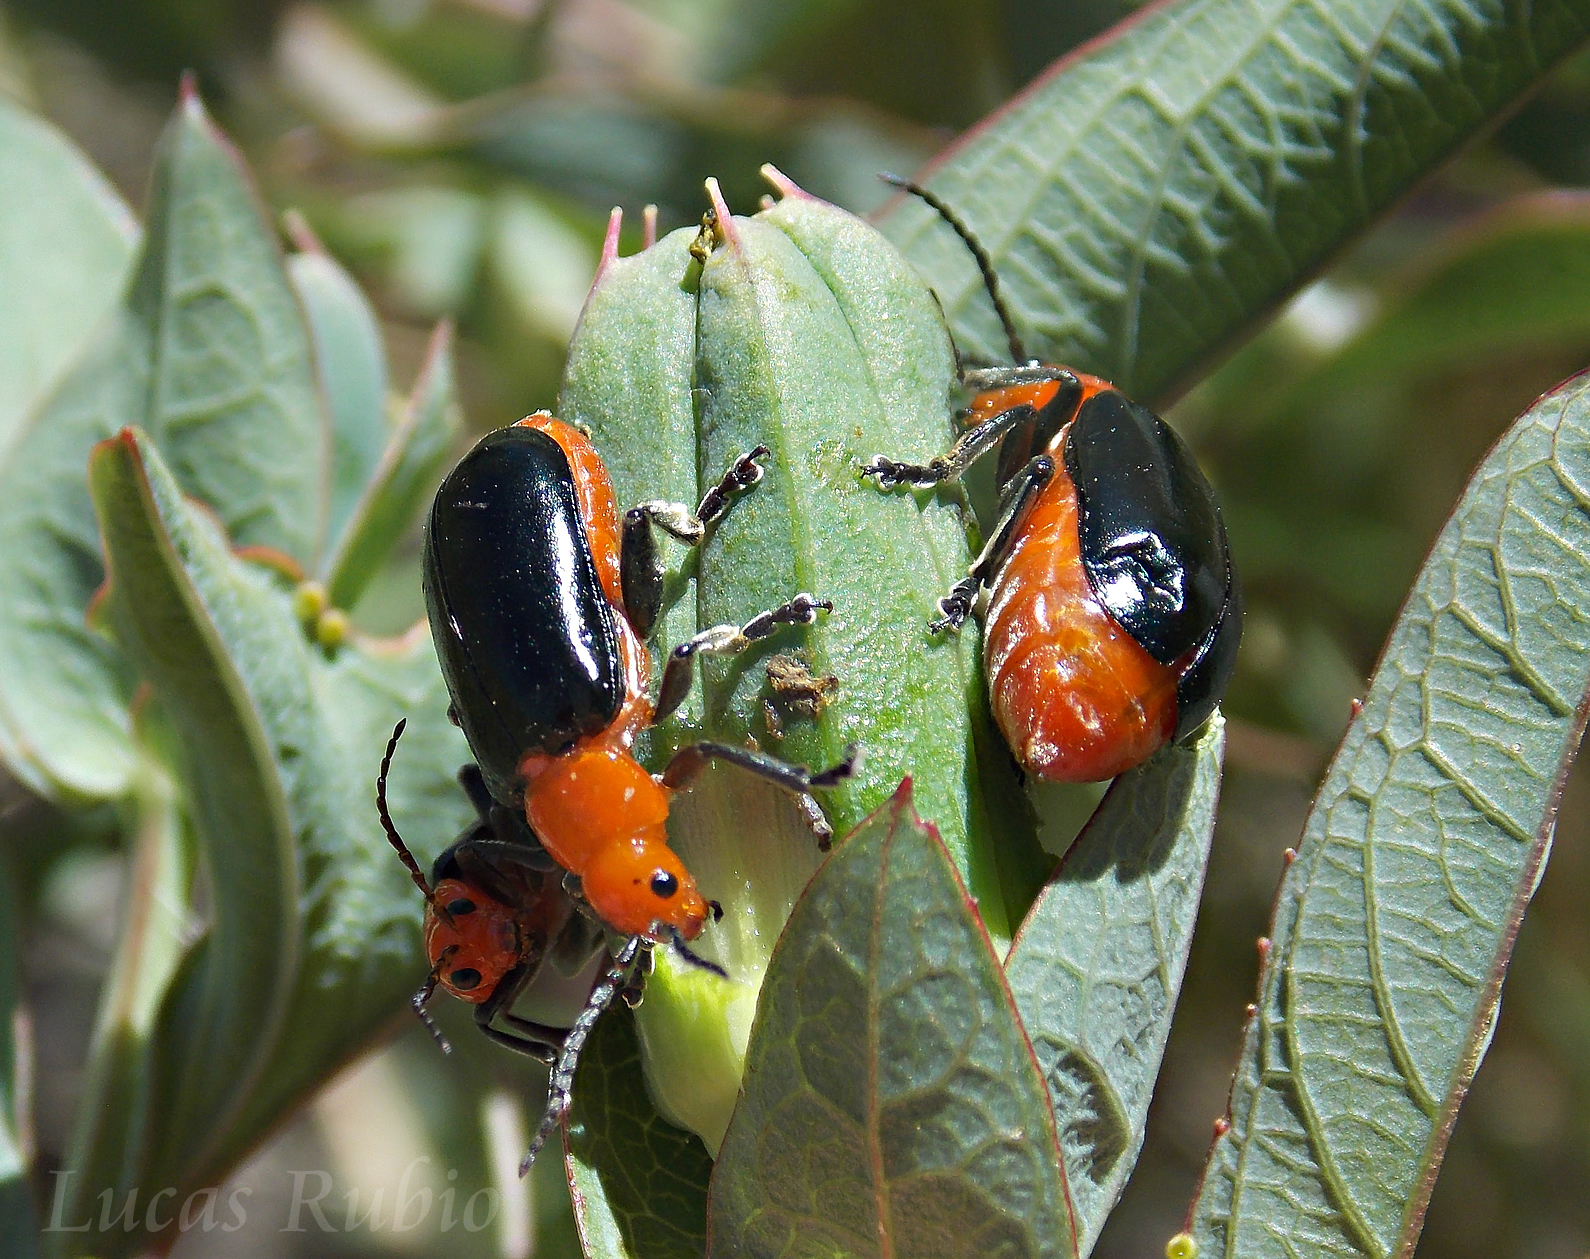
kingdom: Animalia
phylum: Arthropoda
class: Insecta
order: Coleoptera
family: Chrysomelidae
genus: Cacoscelis
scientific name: Cacoscelis
